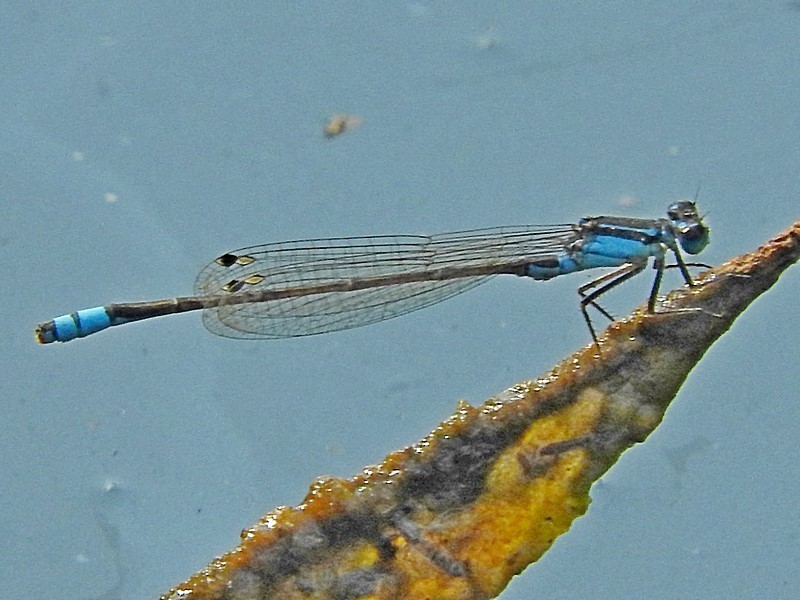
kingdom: Animalia
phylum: Arthropoda
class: Insecta
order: Odonata
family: Coenagrionidae
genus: Ischnura
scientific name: Ischnura heterosticta
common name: Common bluetail
